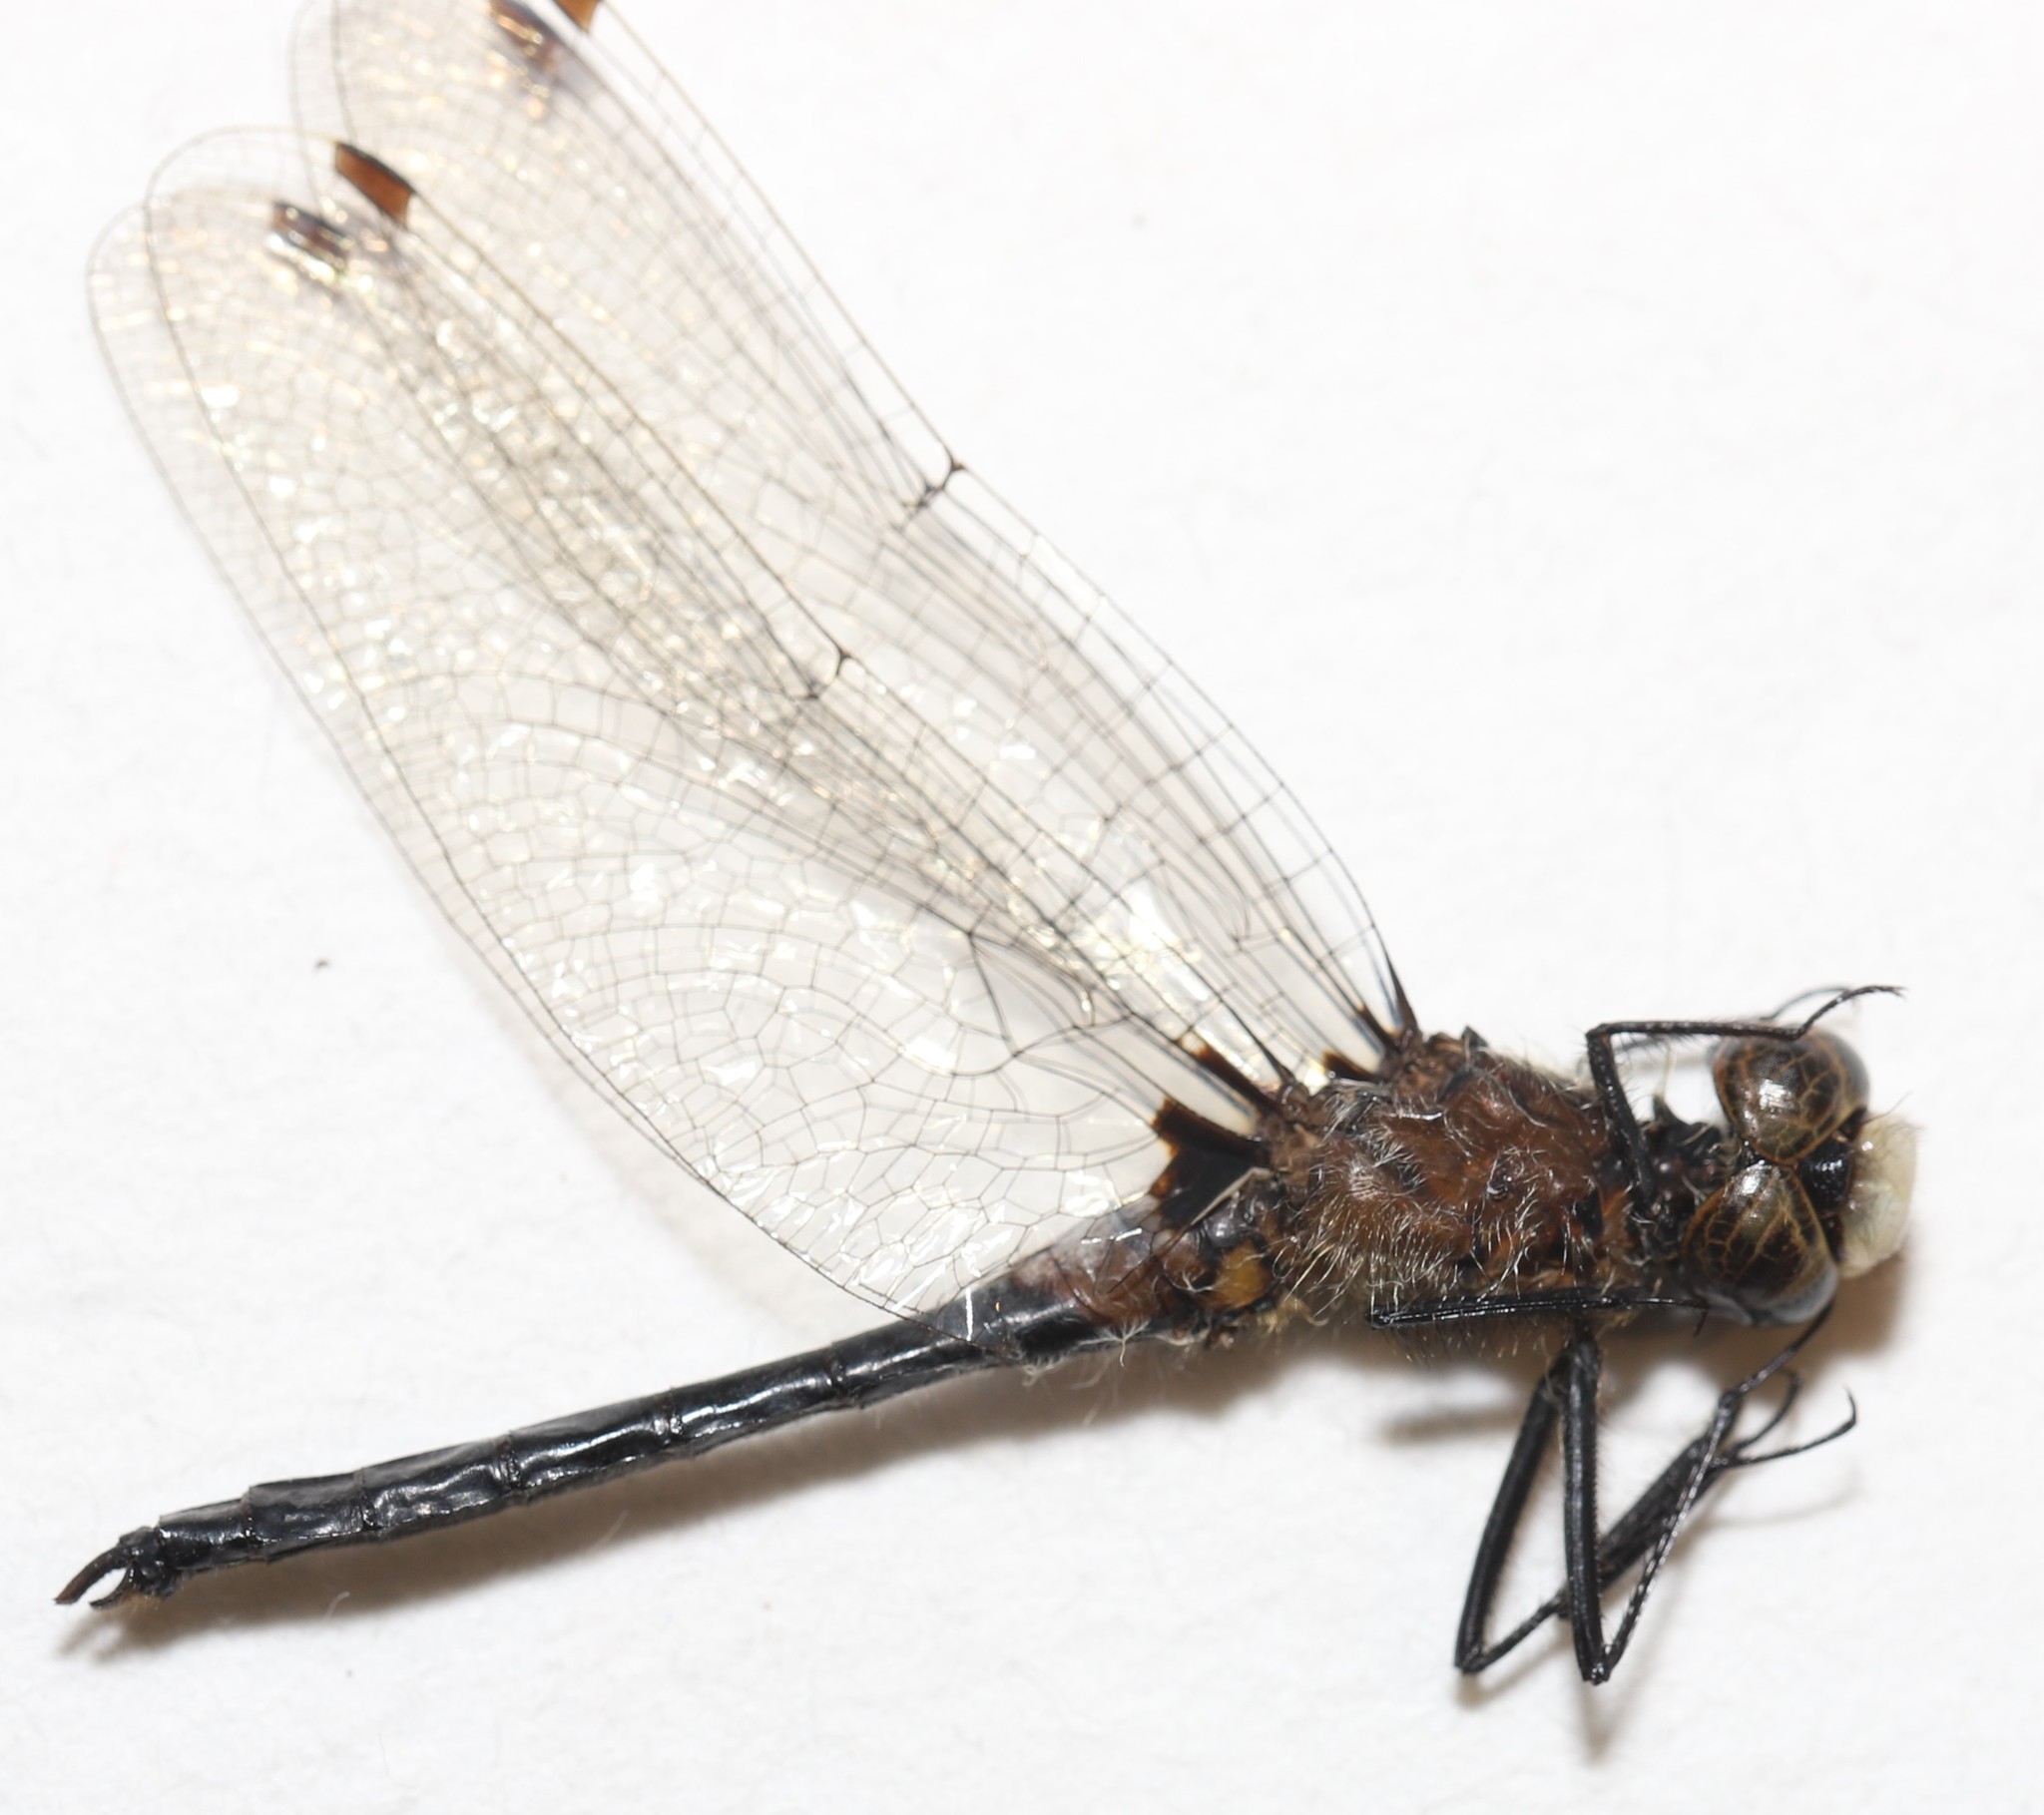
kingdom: Animalia
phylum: Arthropoda
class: Insecta
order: Odonata
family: Libellulidae
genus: Leucorrhinia
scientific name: Leucorrhinia frigida
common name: Frosted whiteface
